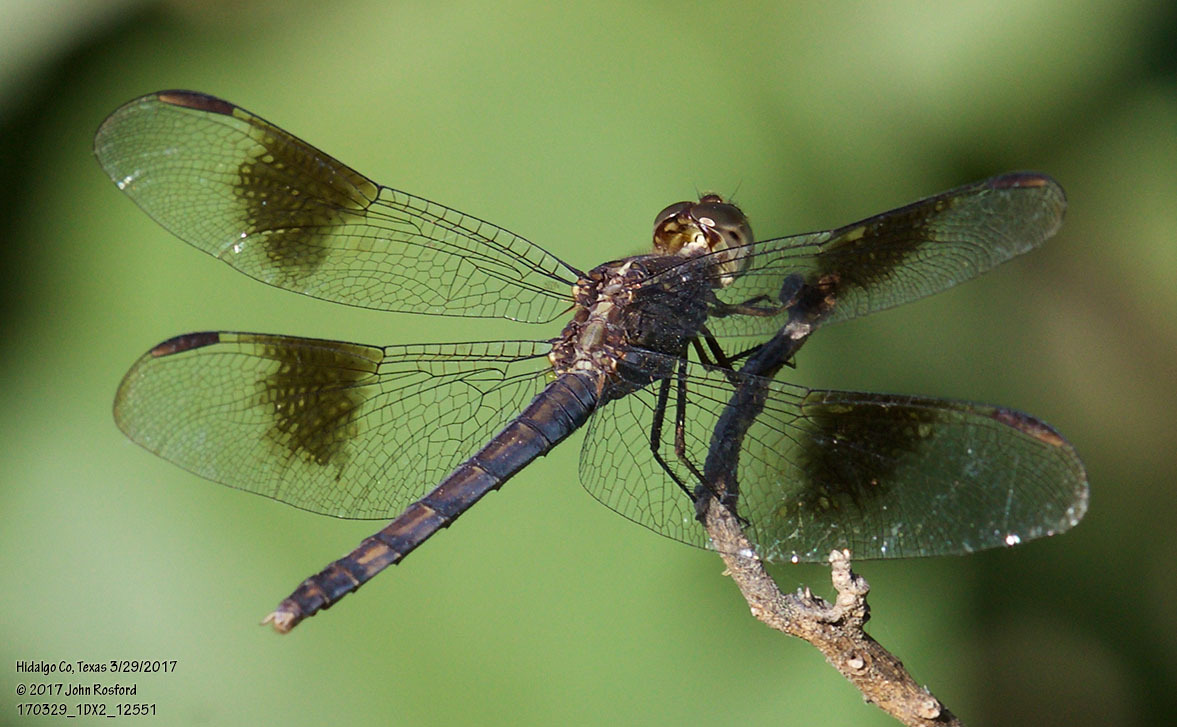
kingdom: Animalia
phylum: Arthropoda
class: Insecta
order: Odonata
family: Libellulidae
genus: Erythrodiplax
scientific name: Erythrodiplax umbrata
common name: Band-winged dragonlet
